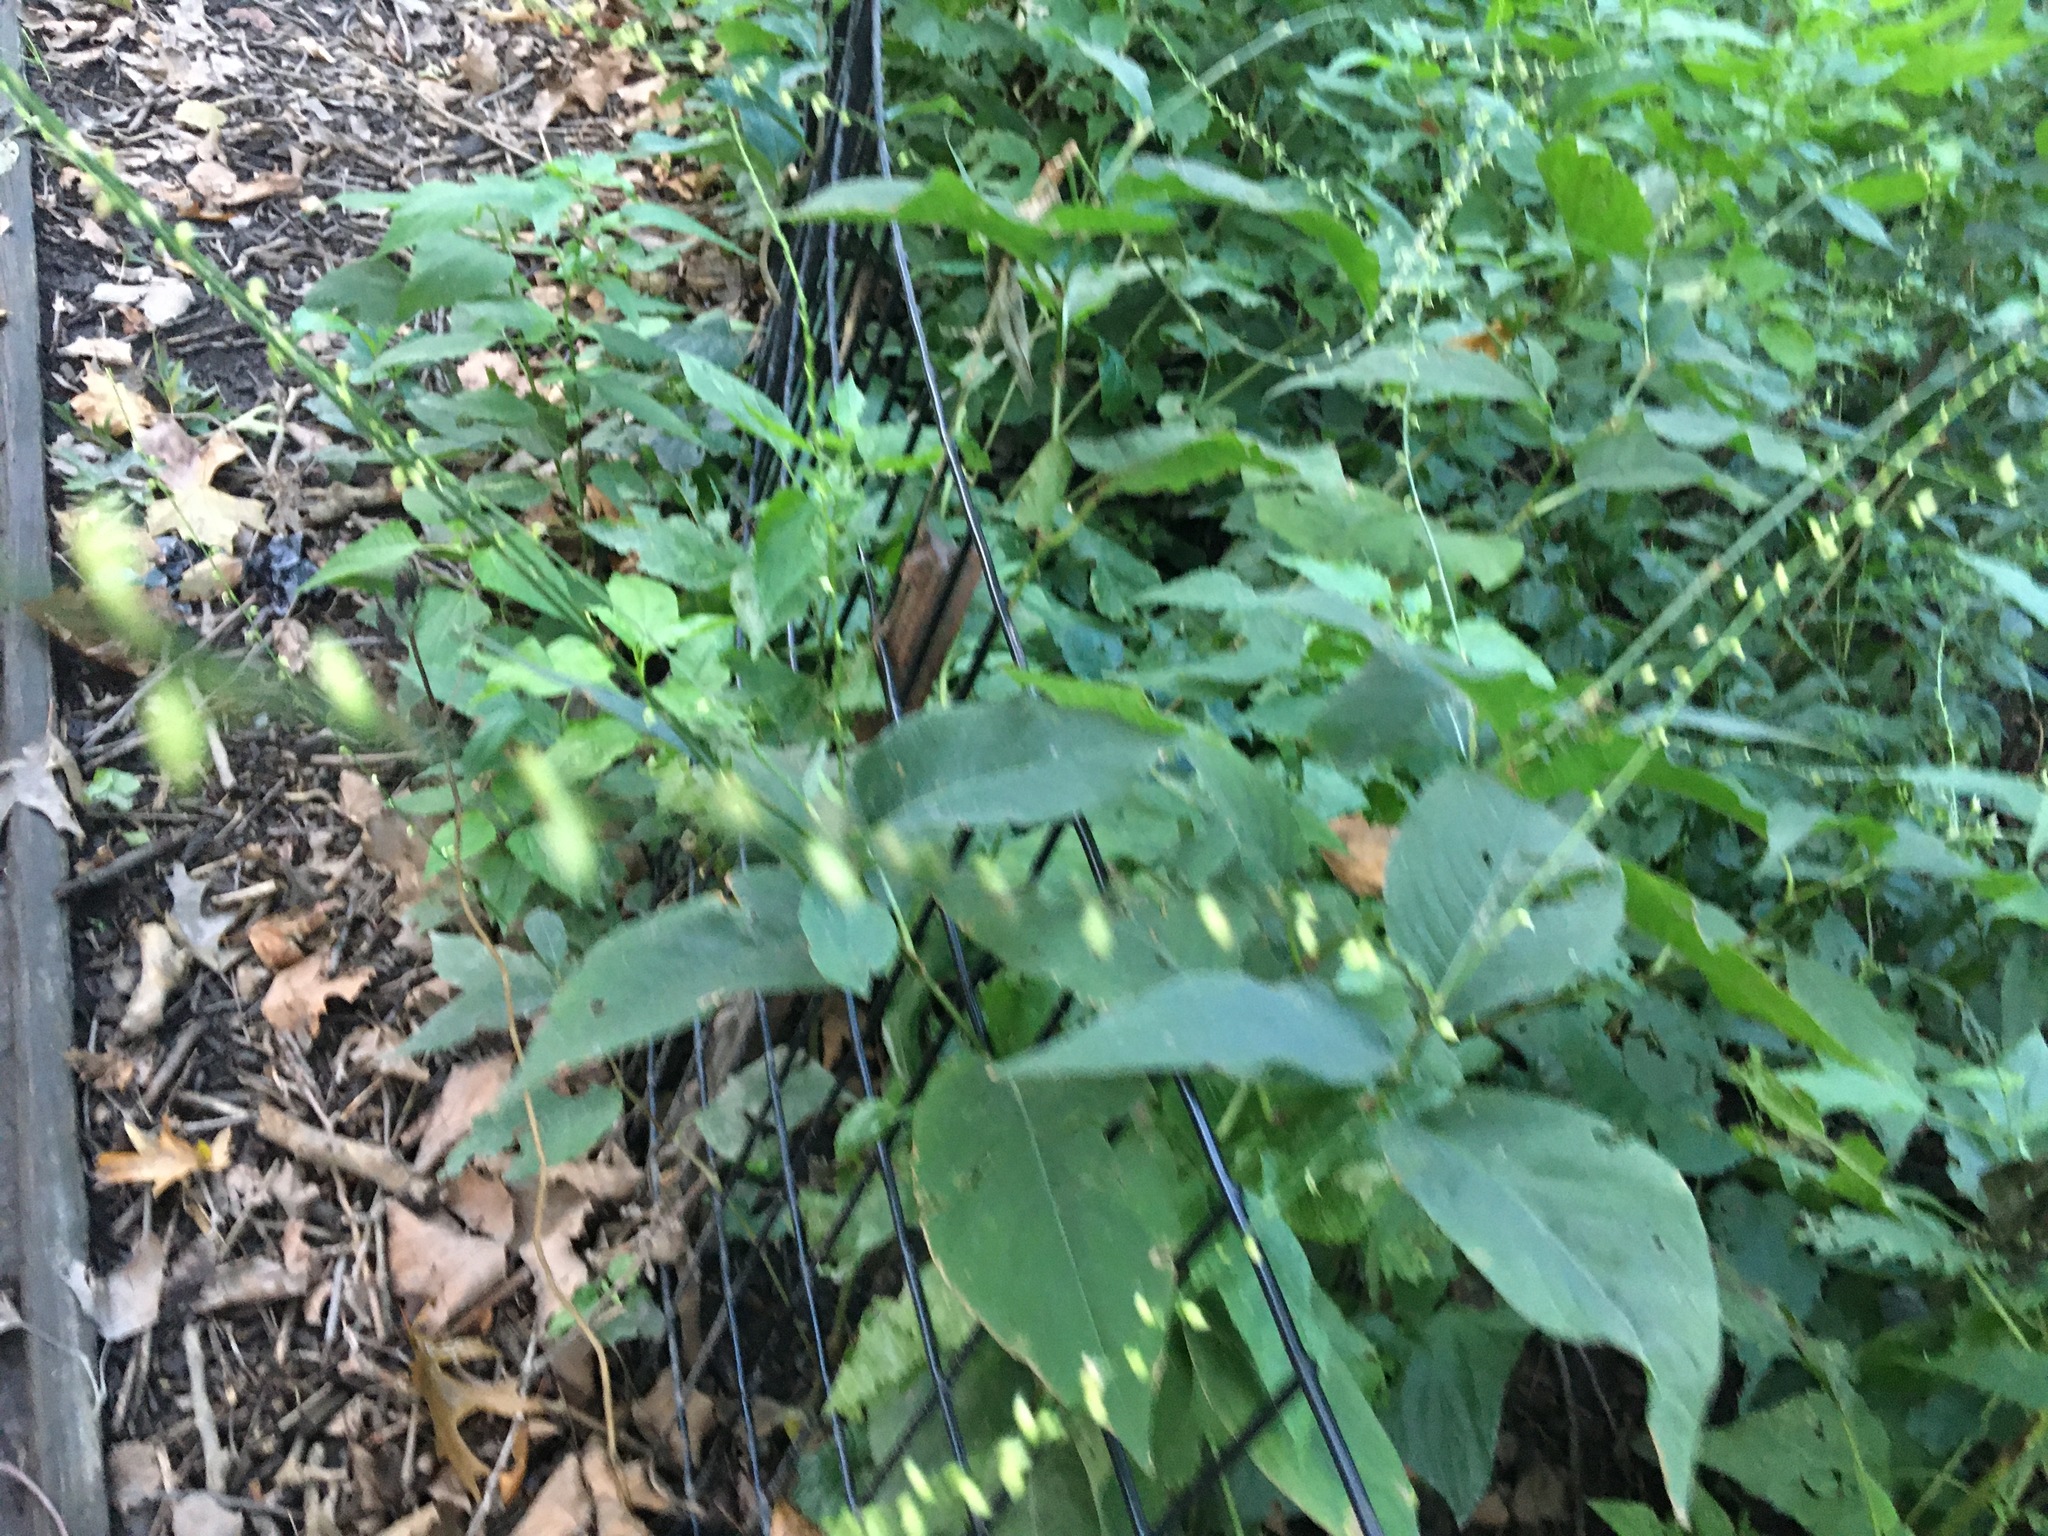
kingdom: Plantae
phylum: Tracheophyta
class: Magnoliopsida
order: Caryophyllales
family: Polygonaceae
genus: Persicaria
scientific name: Persicaria virginiana
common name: Jumpseed
